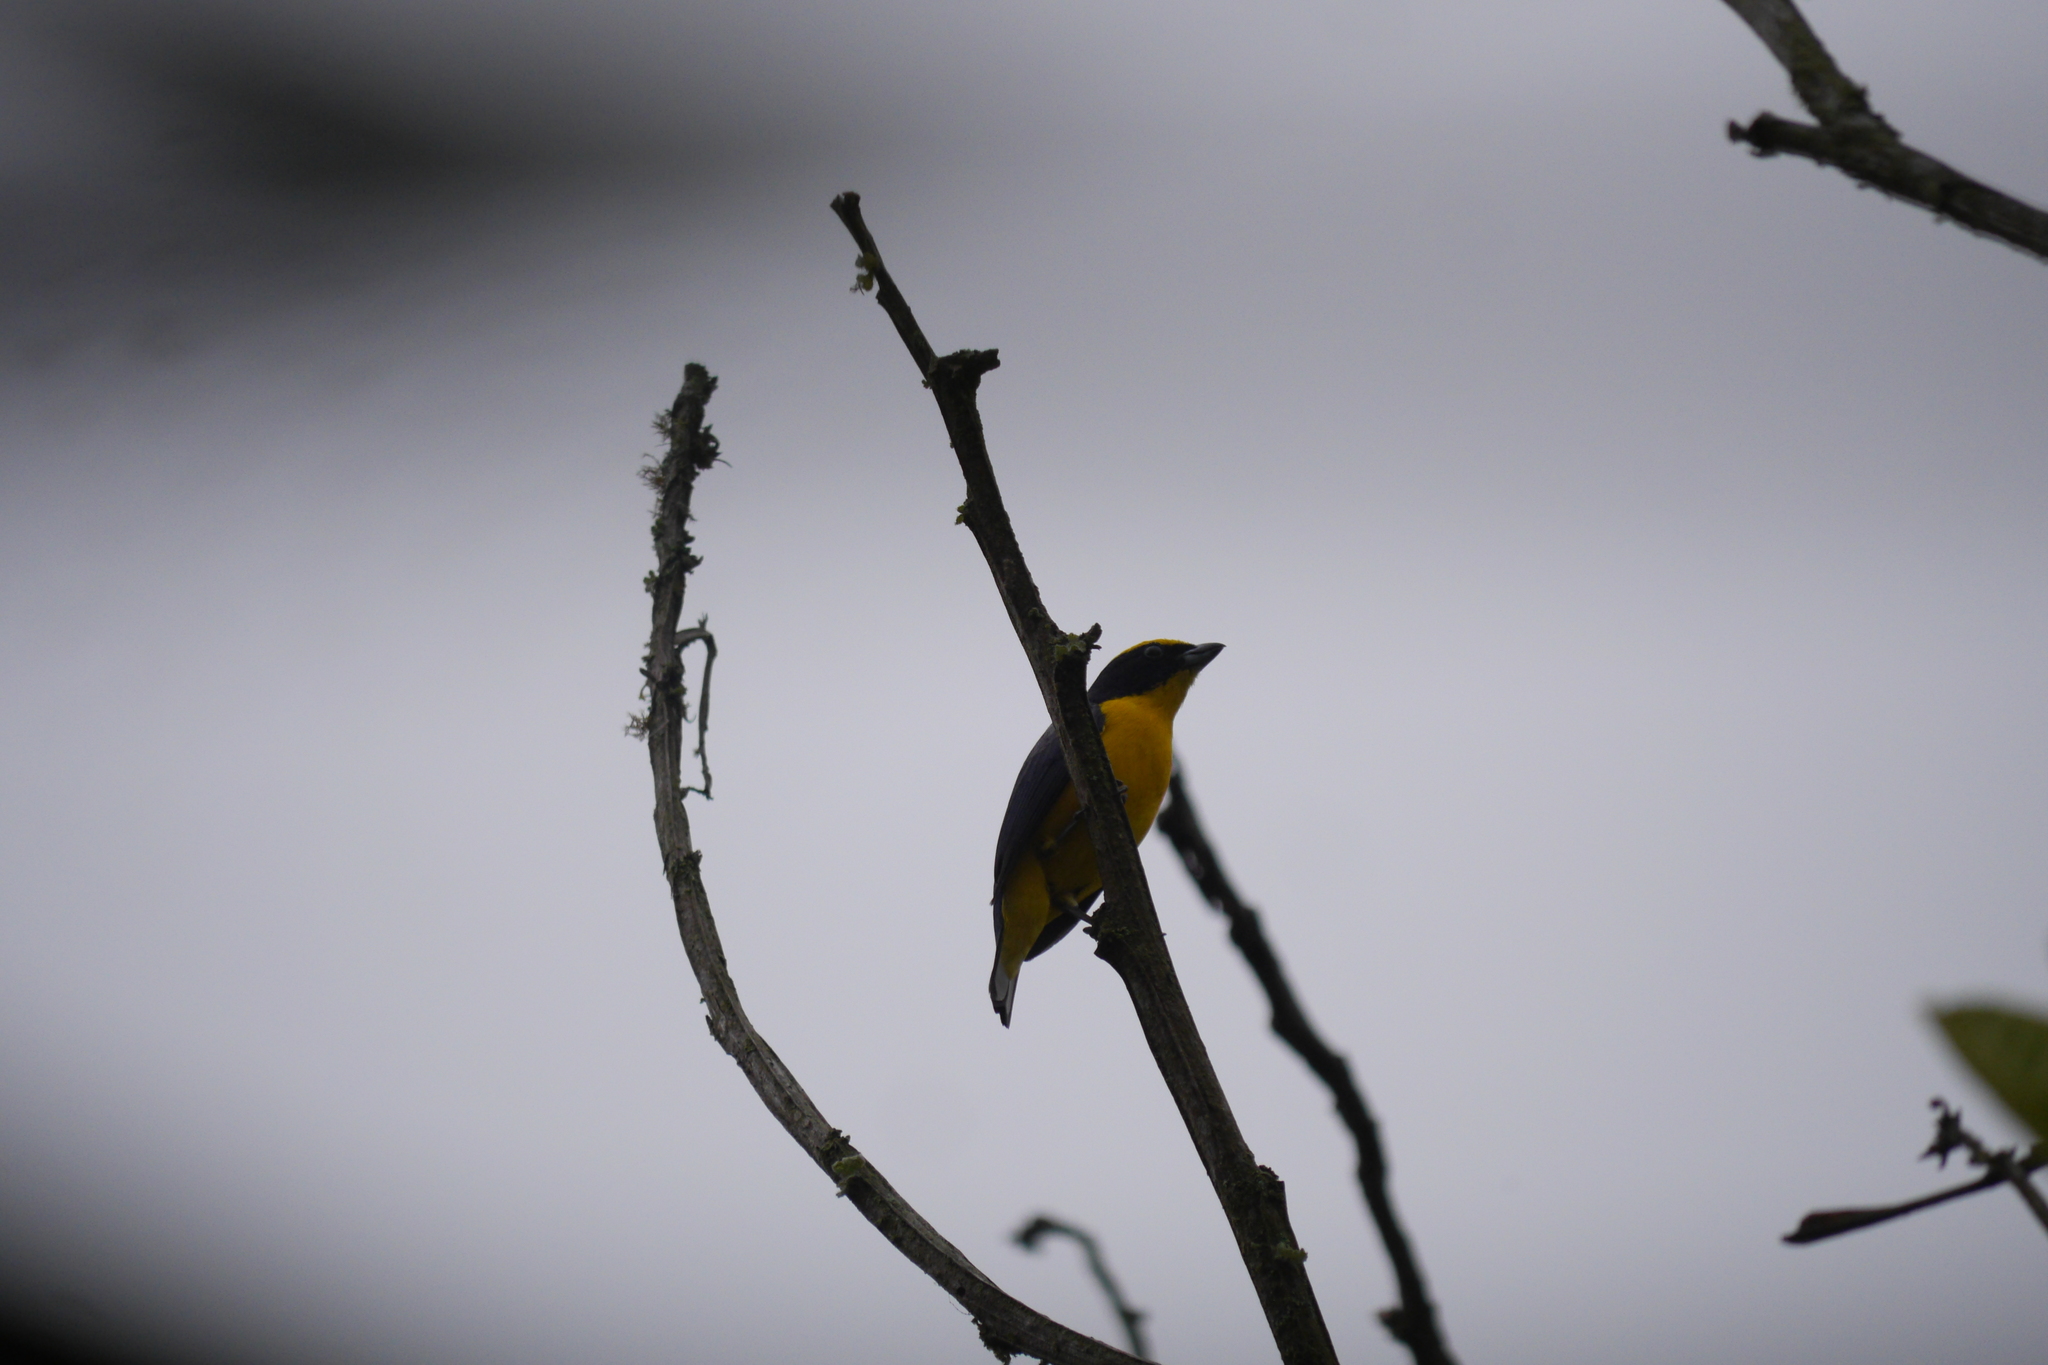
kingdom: Animalia
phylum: Chordata
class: Aves
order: Passeriformes
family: Fringillidae
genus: Euphonia
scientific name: Euphonia laniirostris
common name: Thick-billed euphonia
